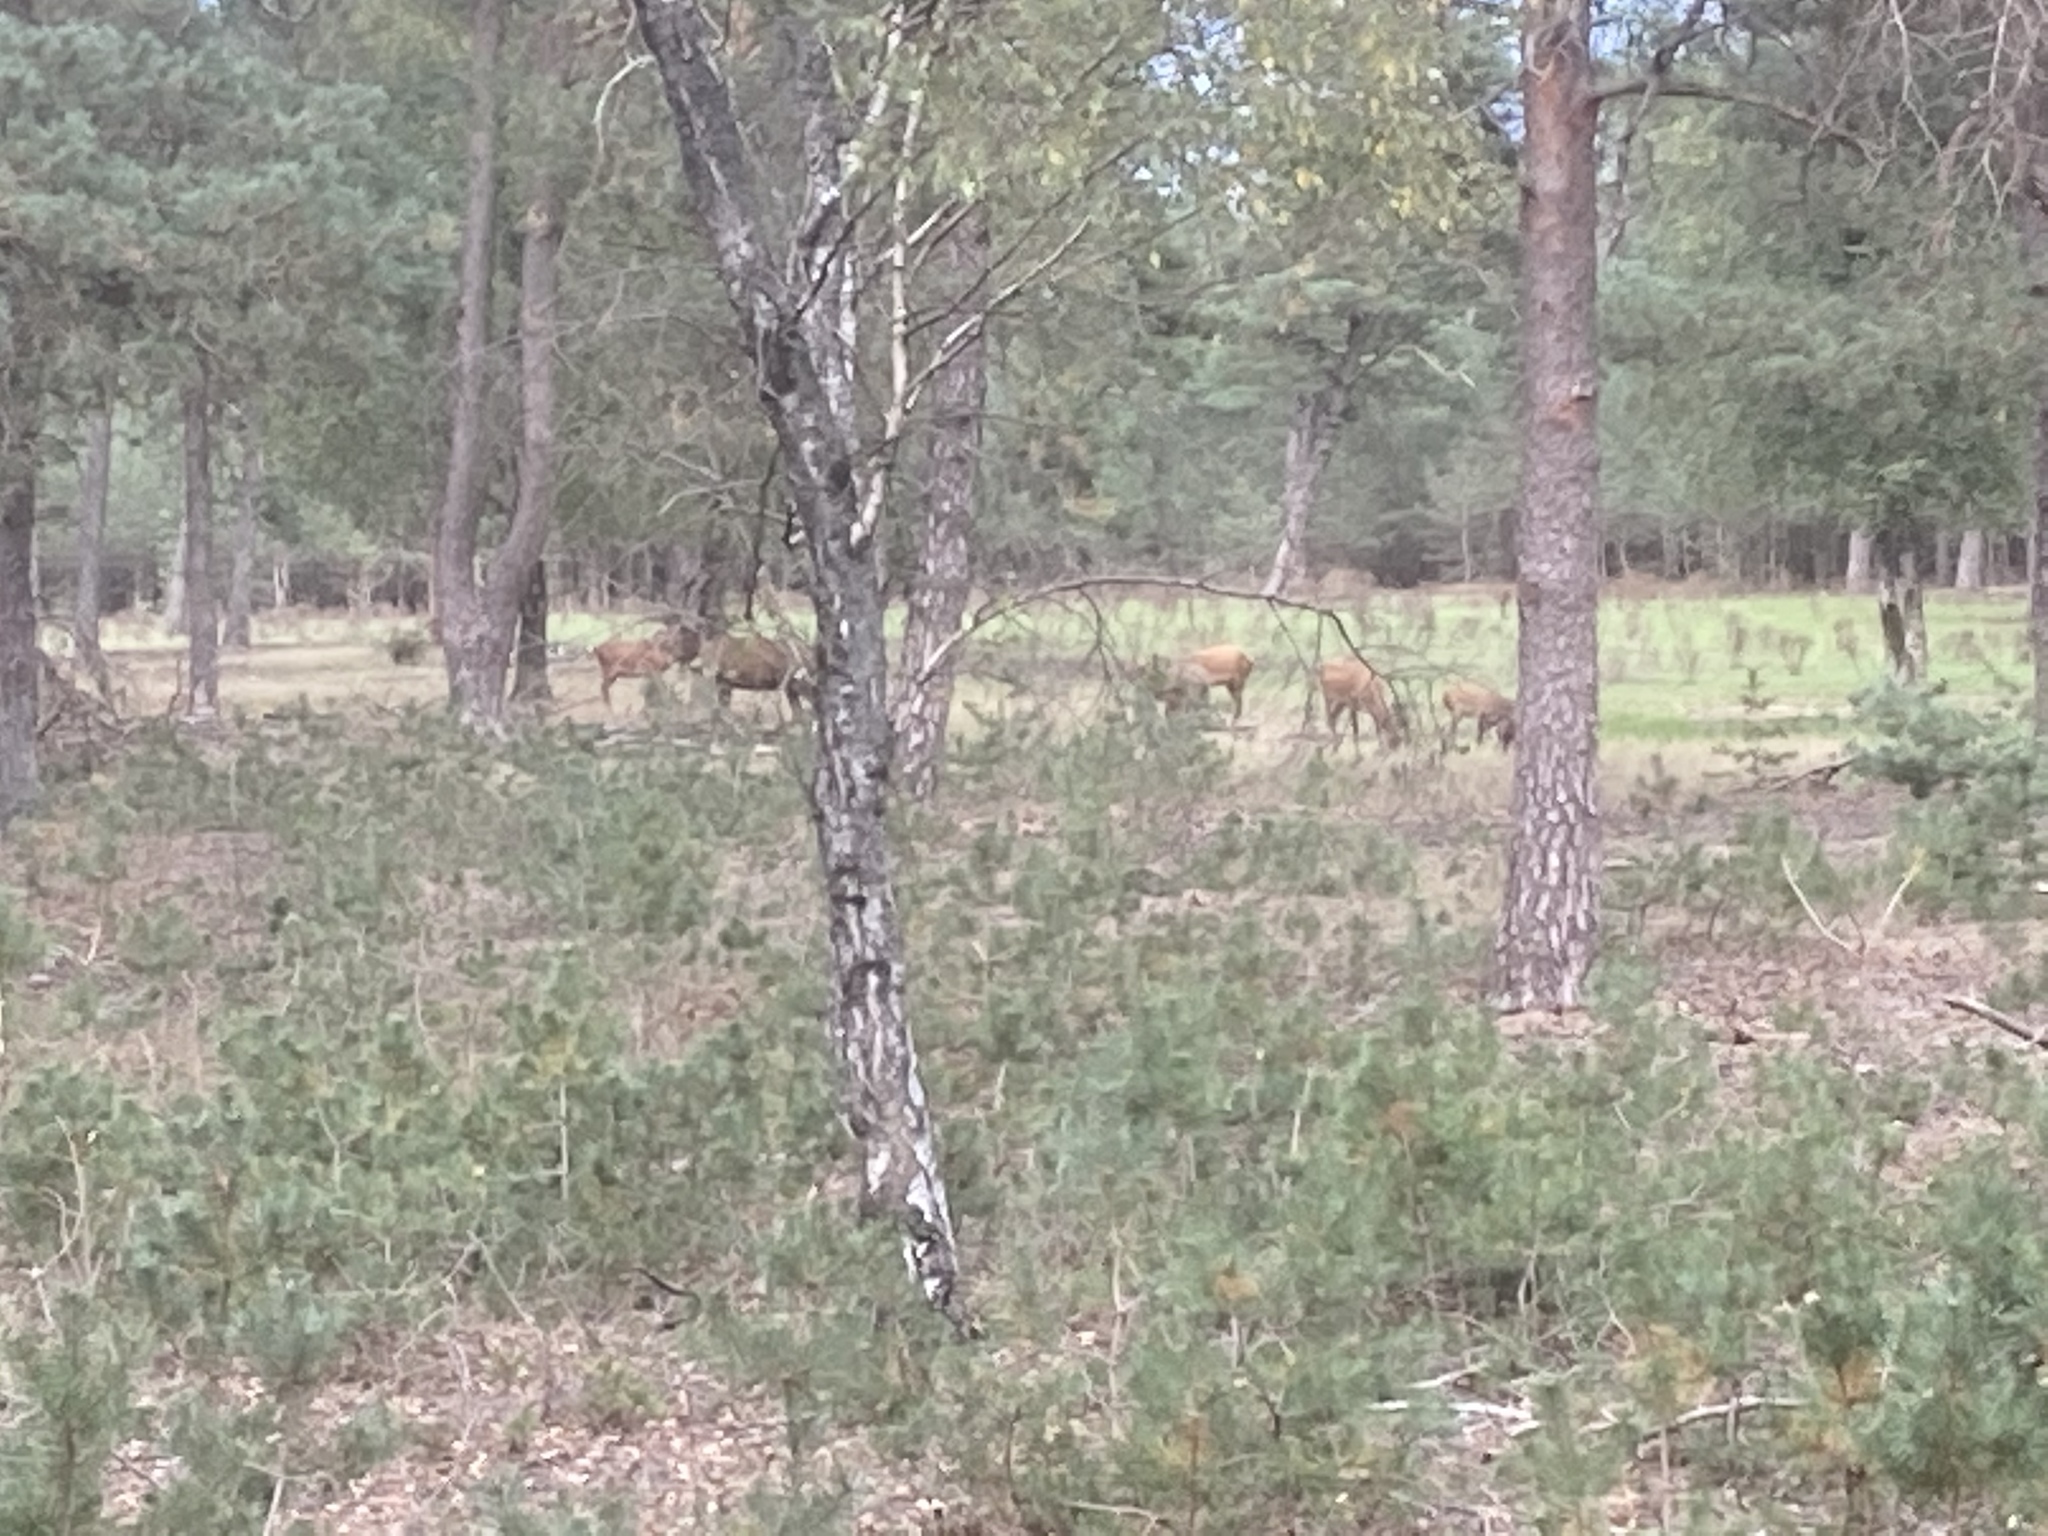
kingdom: Animalia
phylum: Chordata
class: Mammalia
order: Artiodactyla
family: Cervidae
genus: Cervus
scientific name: Cervus elaphus
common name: Red deer
